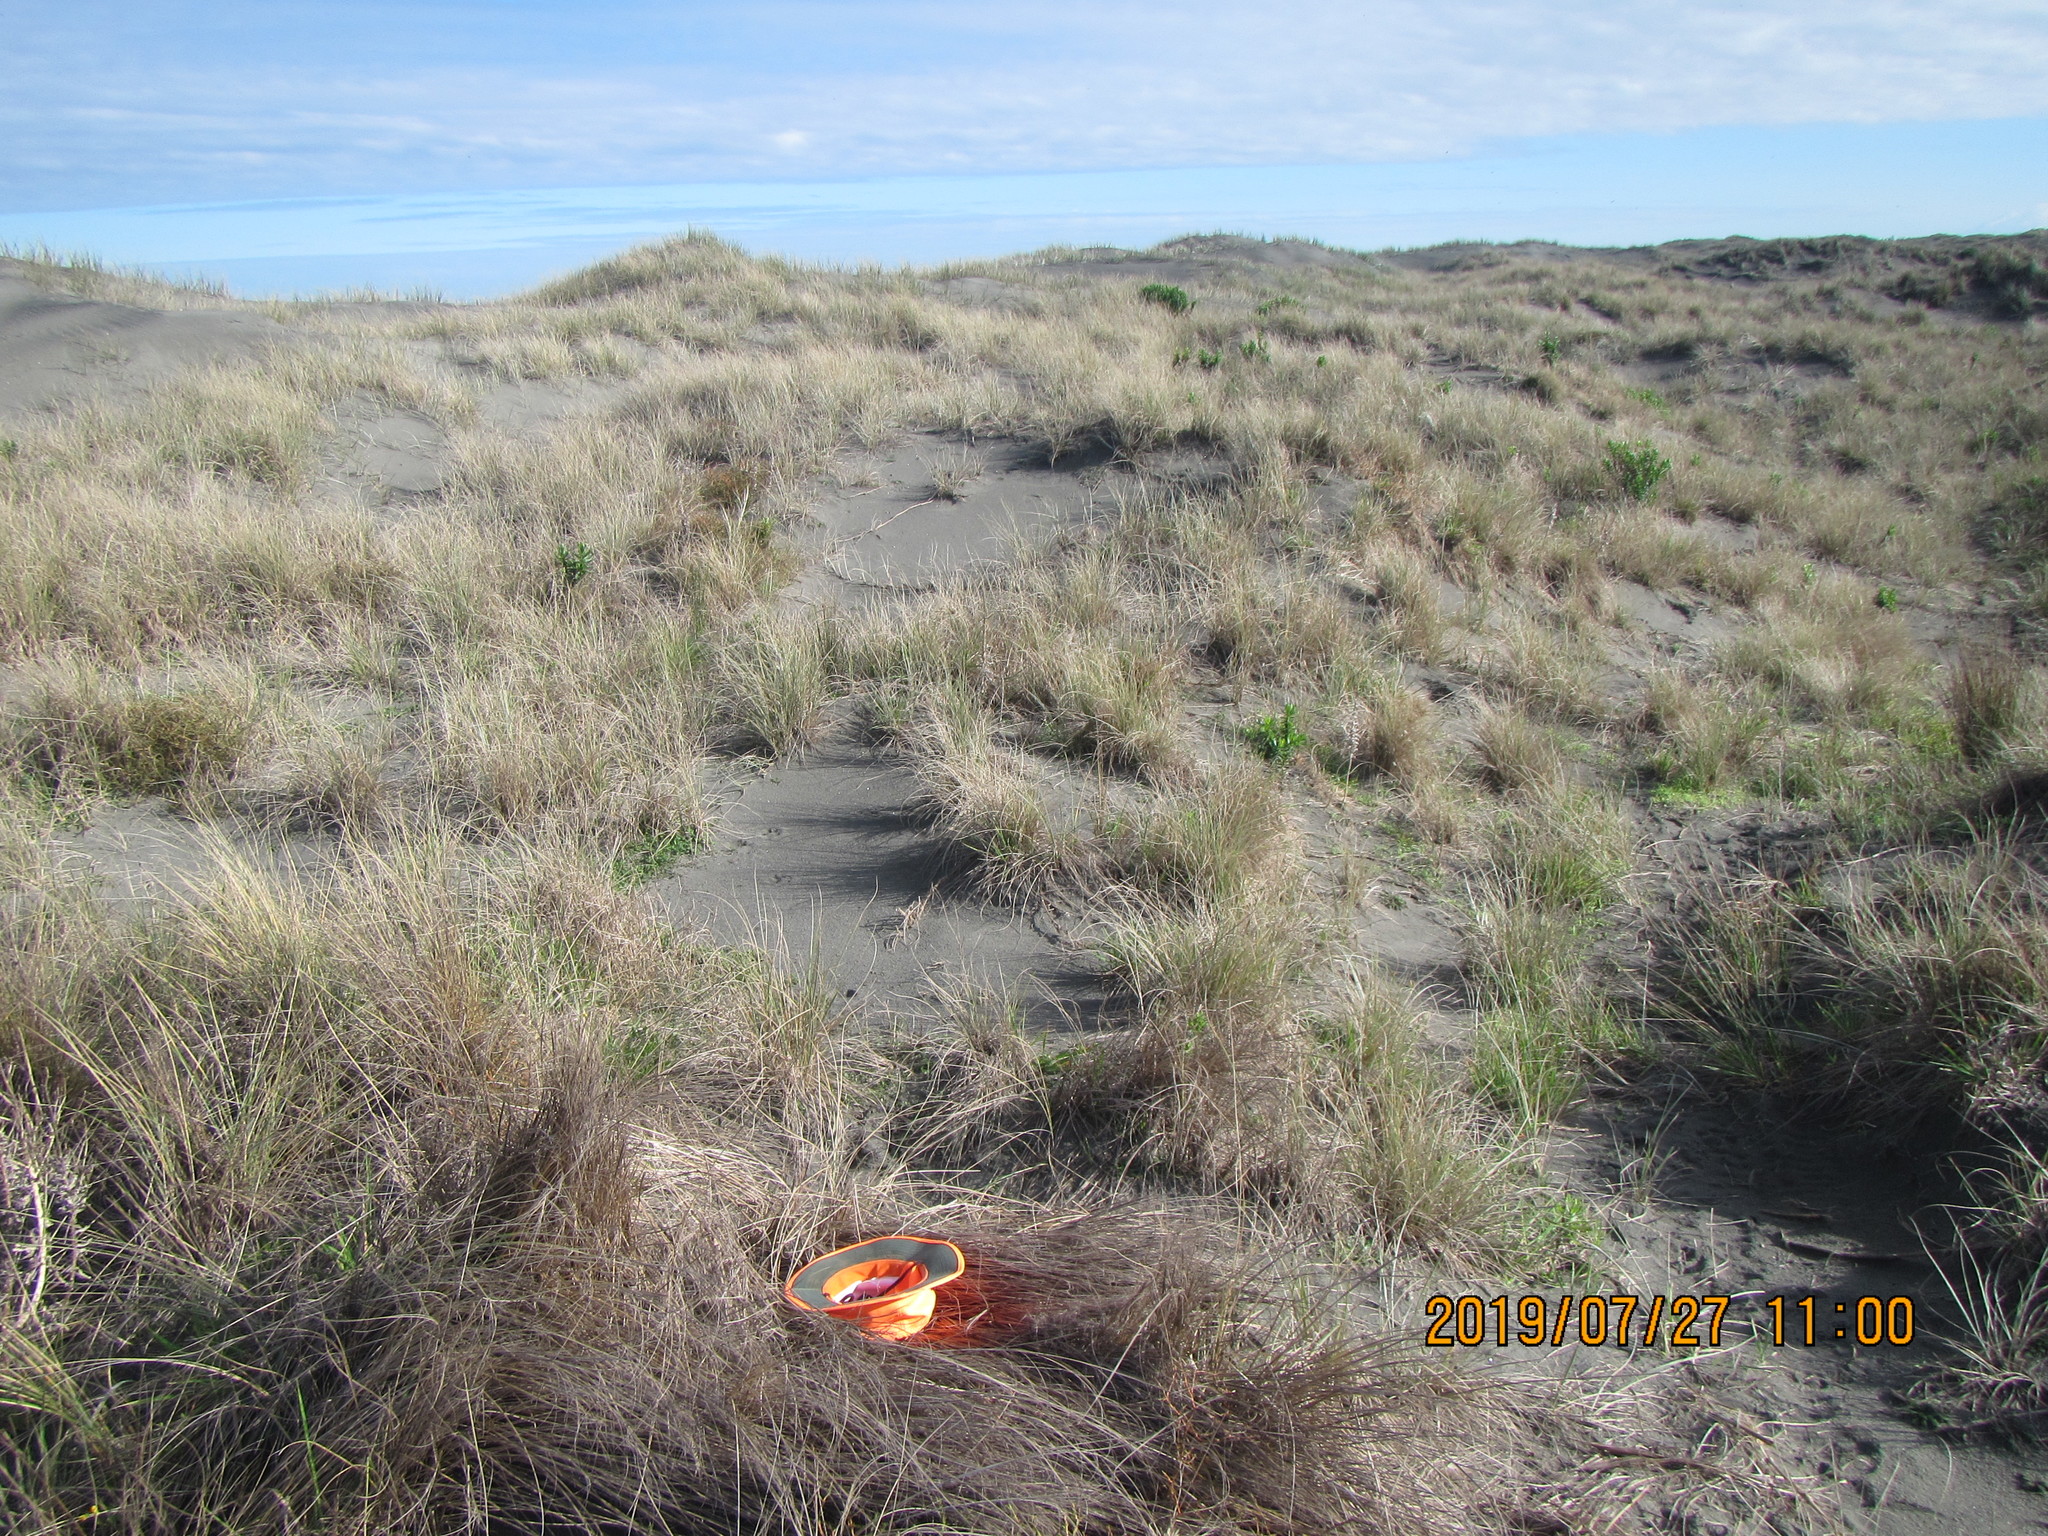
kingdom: Animalia
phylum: Arthropoda
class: Insecta
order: Dermaptera
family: Anisolabididae
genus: Anisolabis
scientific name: Anisolabis littorea
